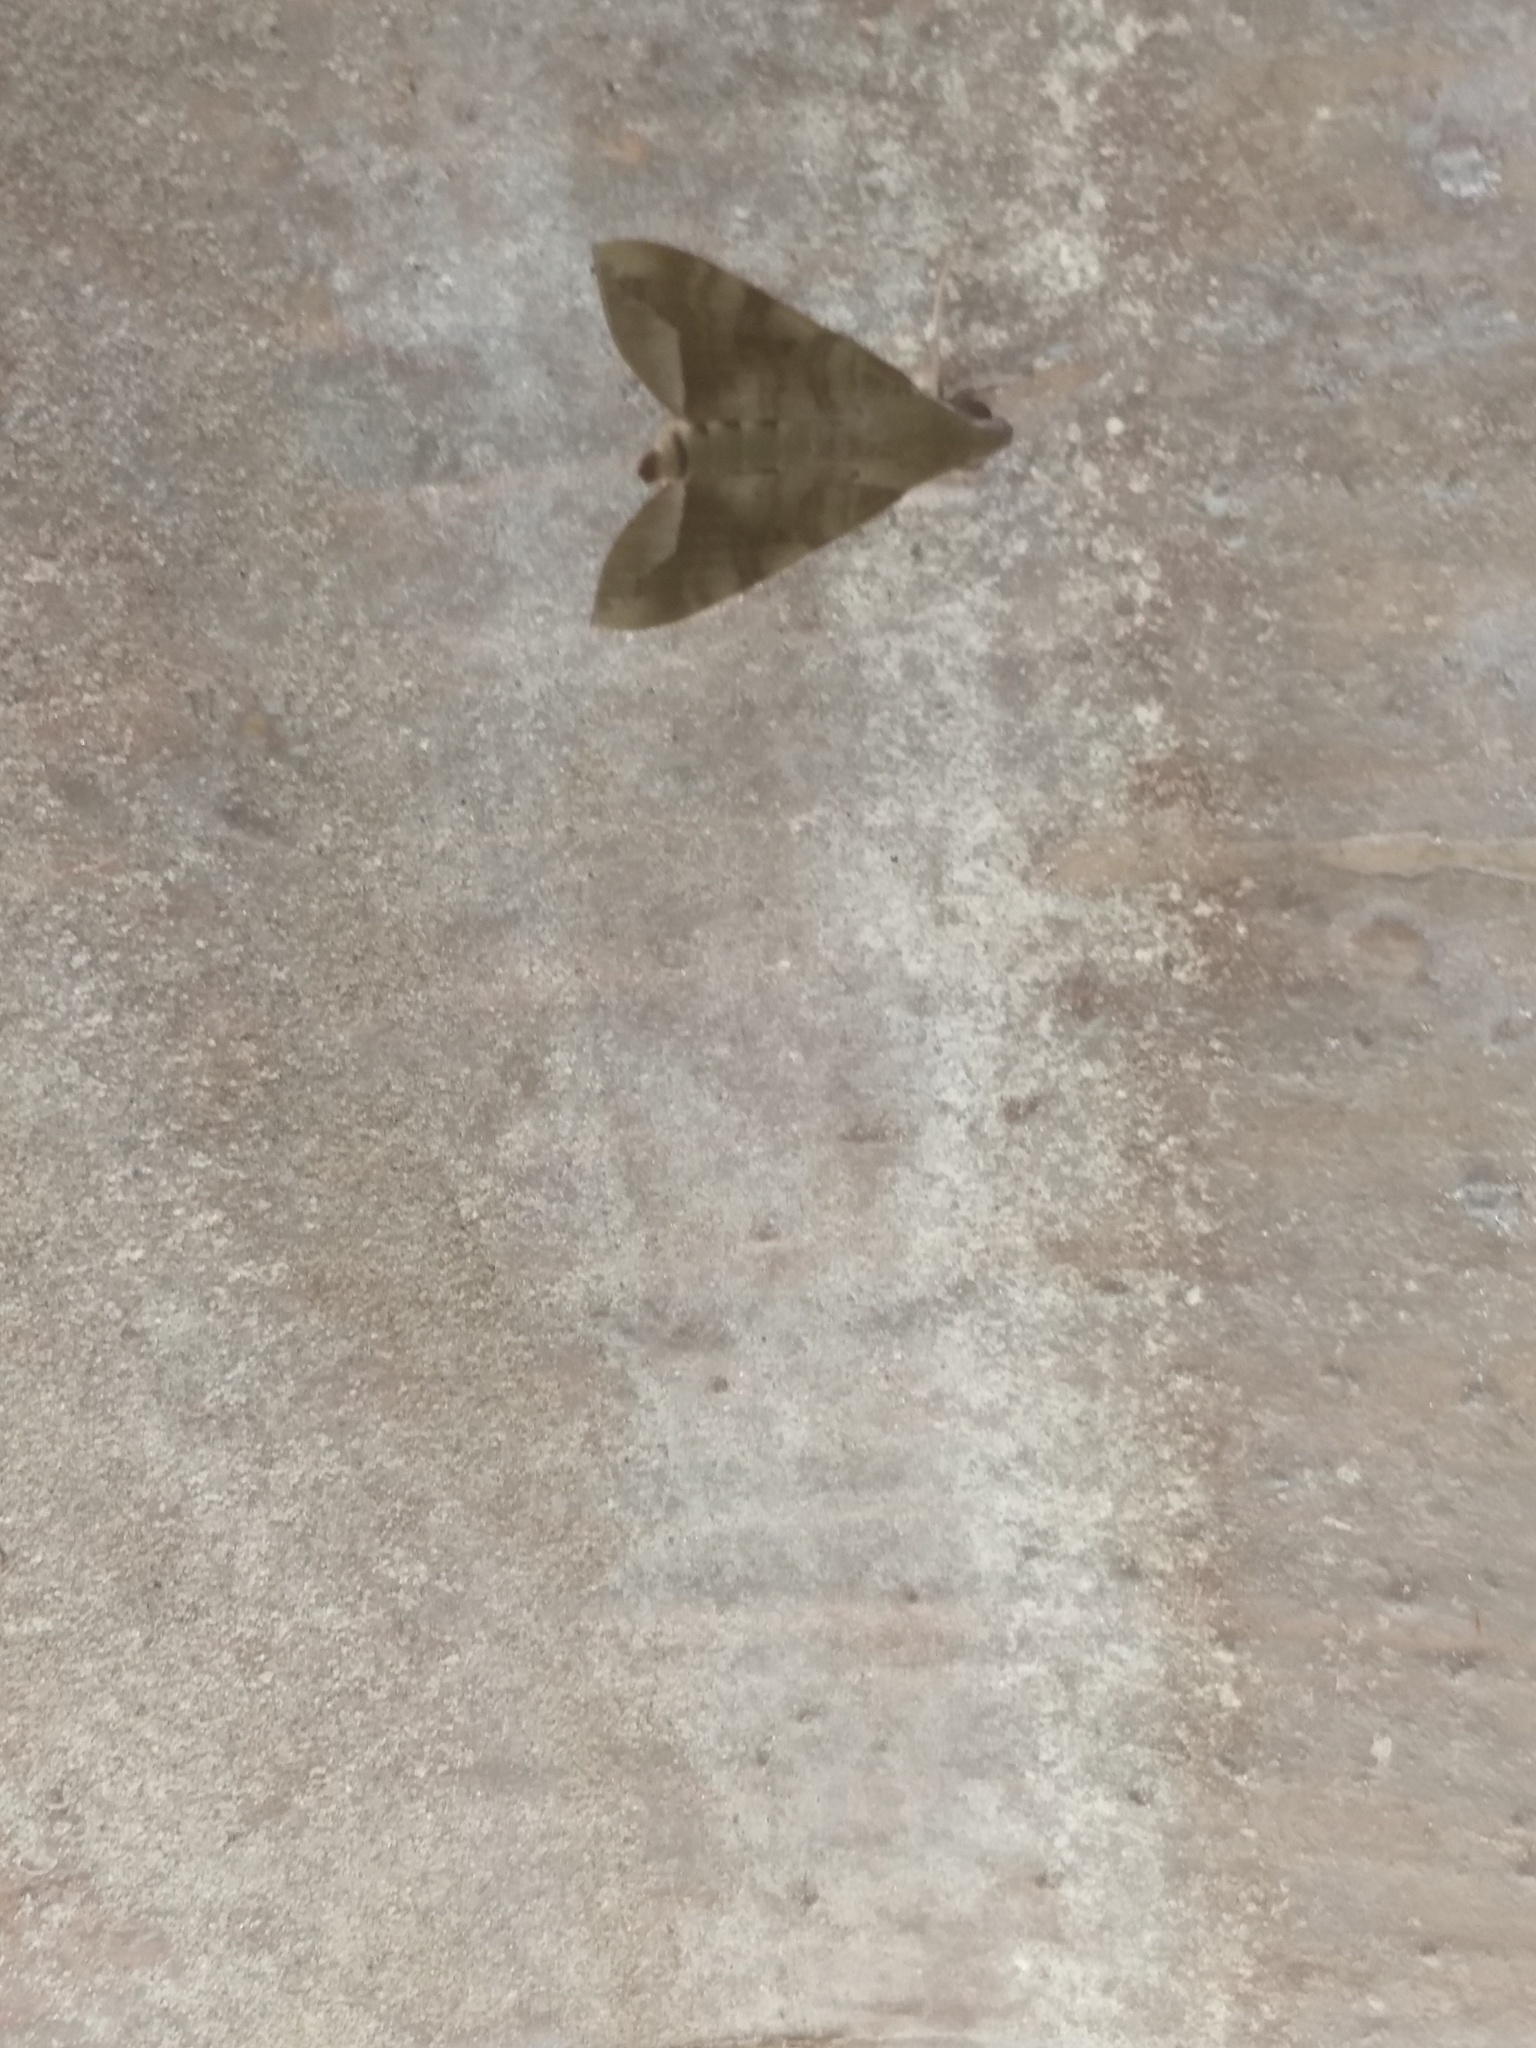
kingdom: Animalia
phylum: Arthropoda
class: Insecta
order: Lepidoptera
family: Sphingidae
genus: Nephele
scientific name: Nephele hespera
